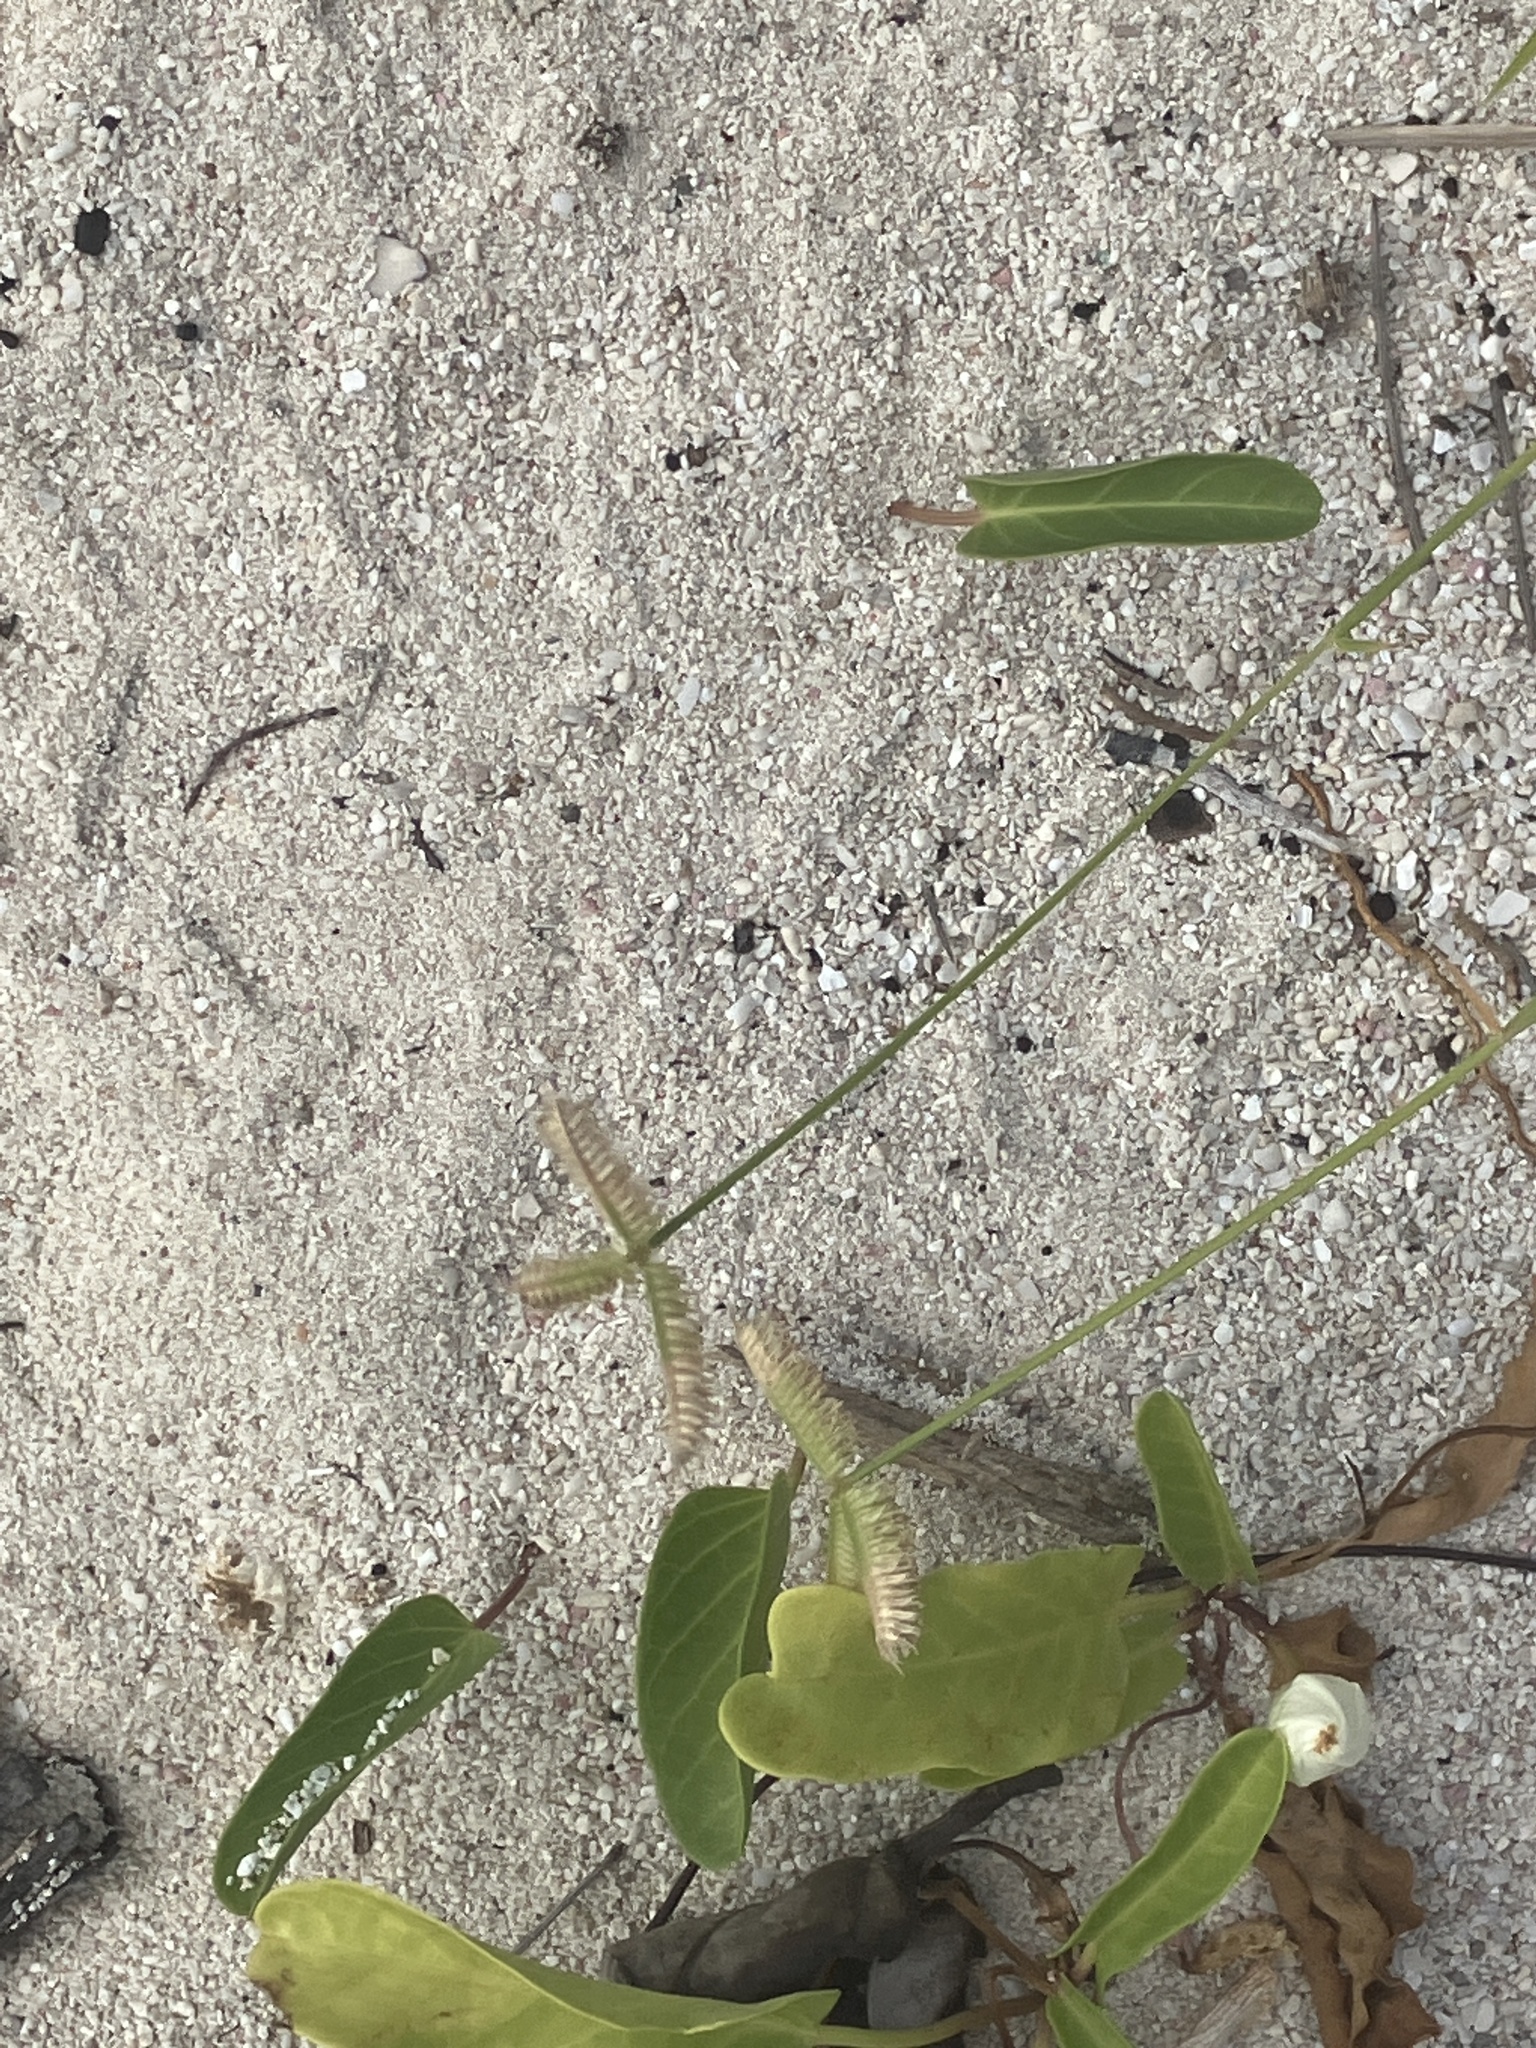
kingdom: Plantae
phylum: Tracheophyta
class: Liliopsida
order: Poales
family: Poaceae
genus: Dactyloctenium
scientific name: Dactyloctenium aegyptium
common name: Egyptian grass
